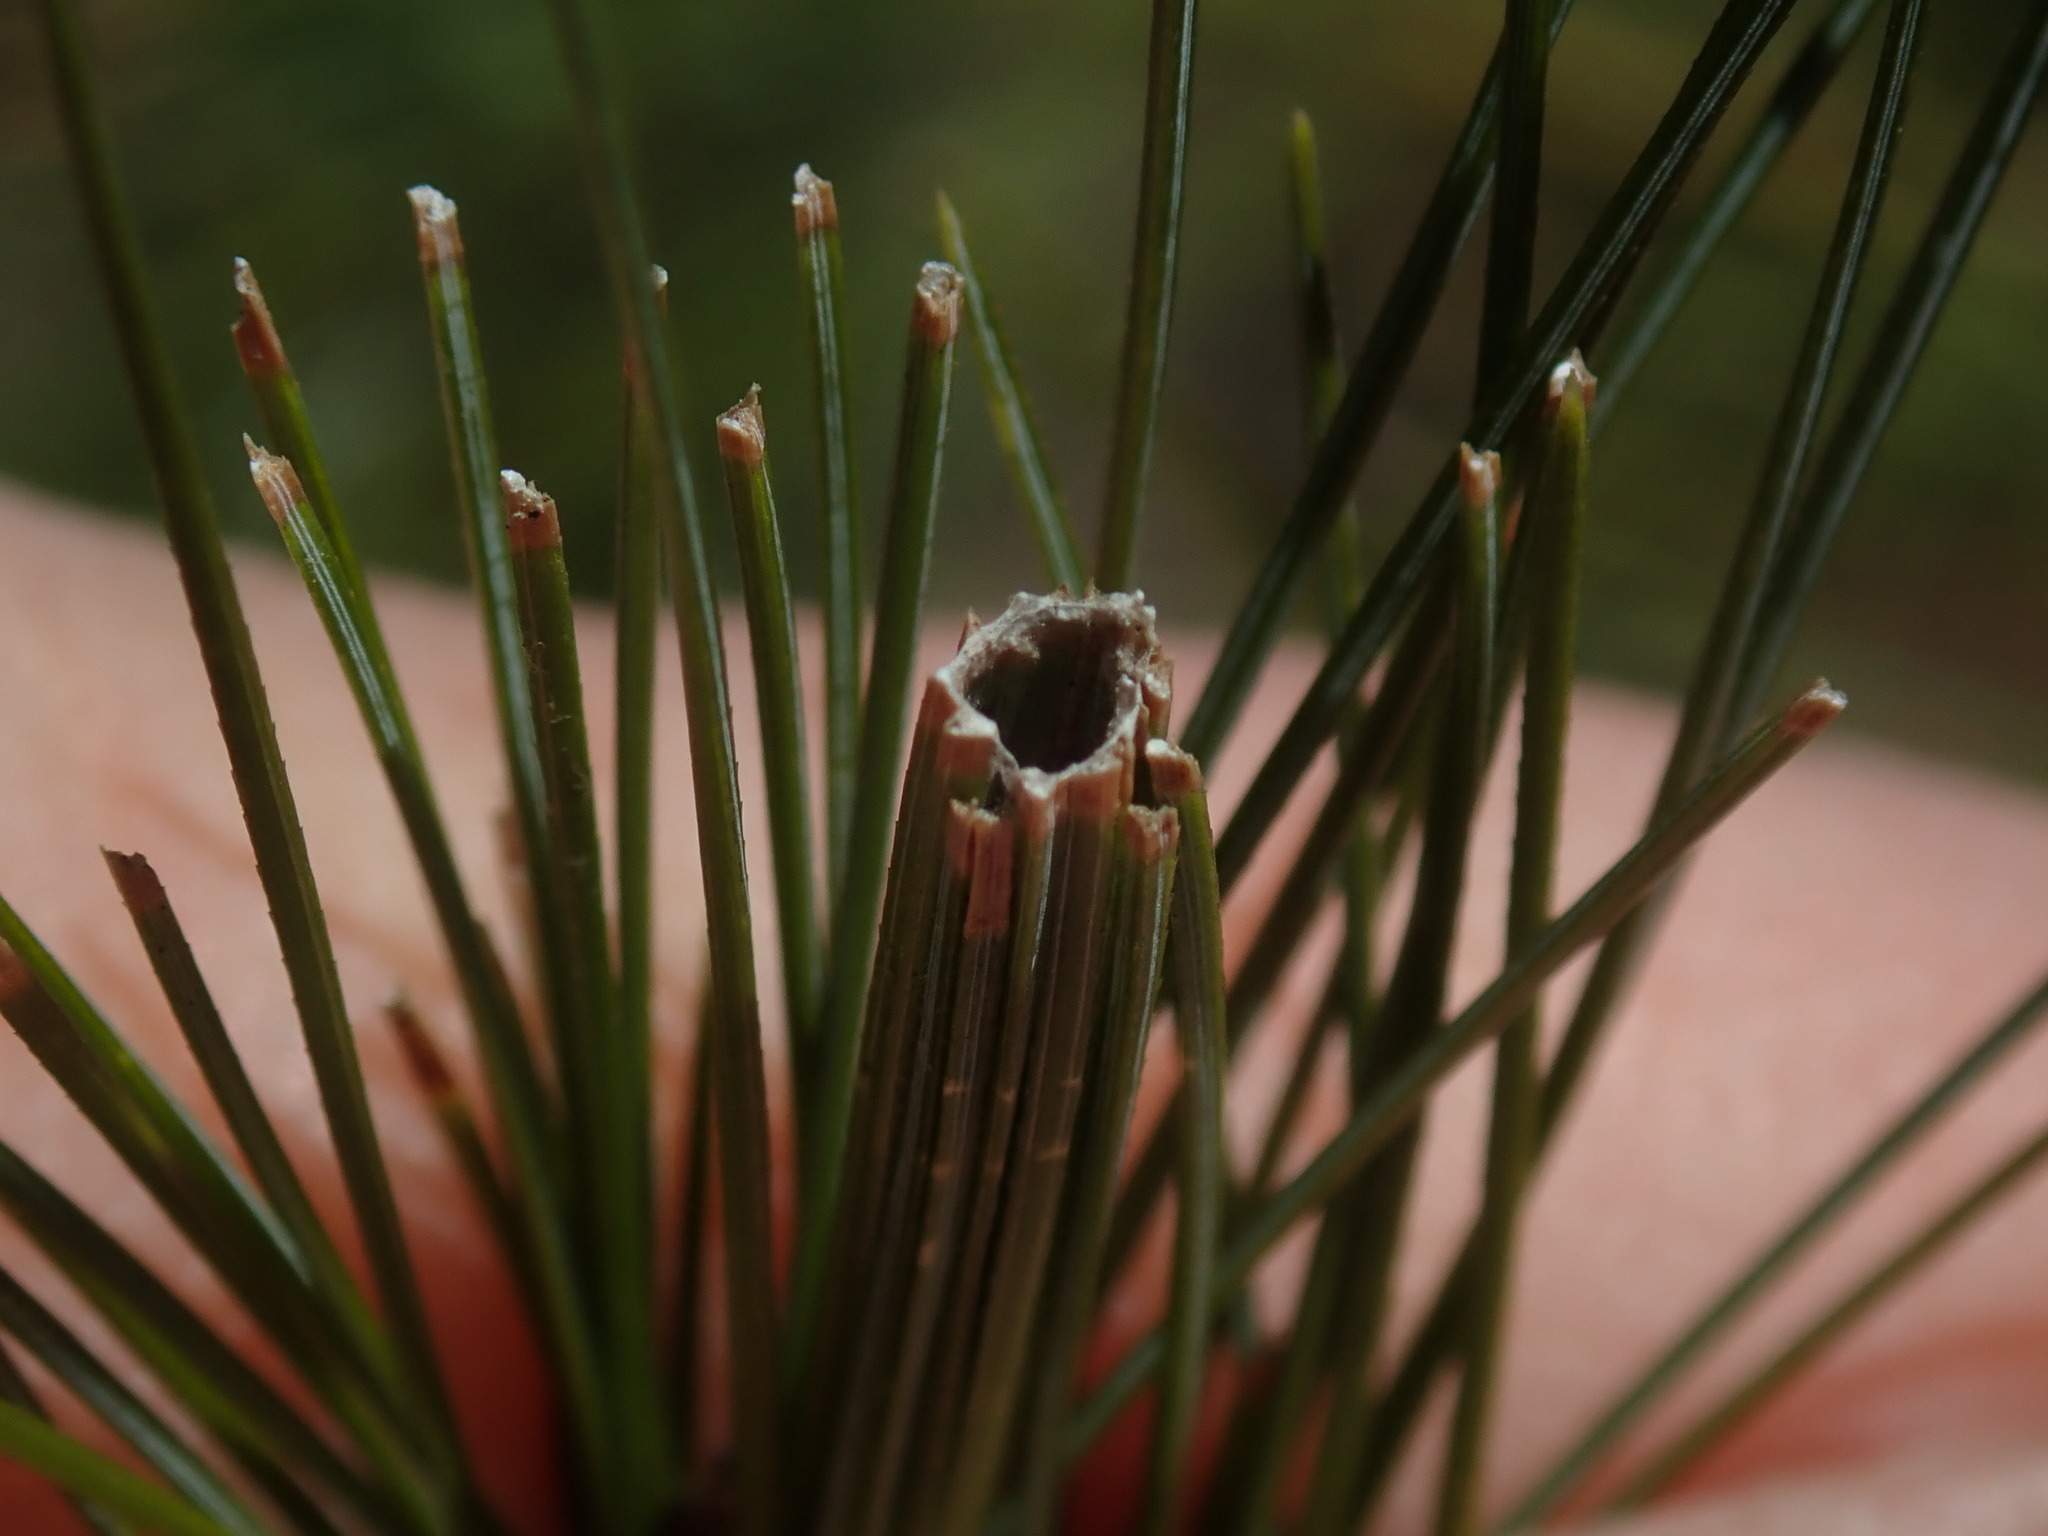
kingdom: Animalia
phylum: Arthropoda
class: Insecta
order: Lepidoptera
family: Tortricidae
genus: Argyrotaenia
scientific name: Argyrotaenia pinatubana
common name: Pine tube moth
